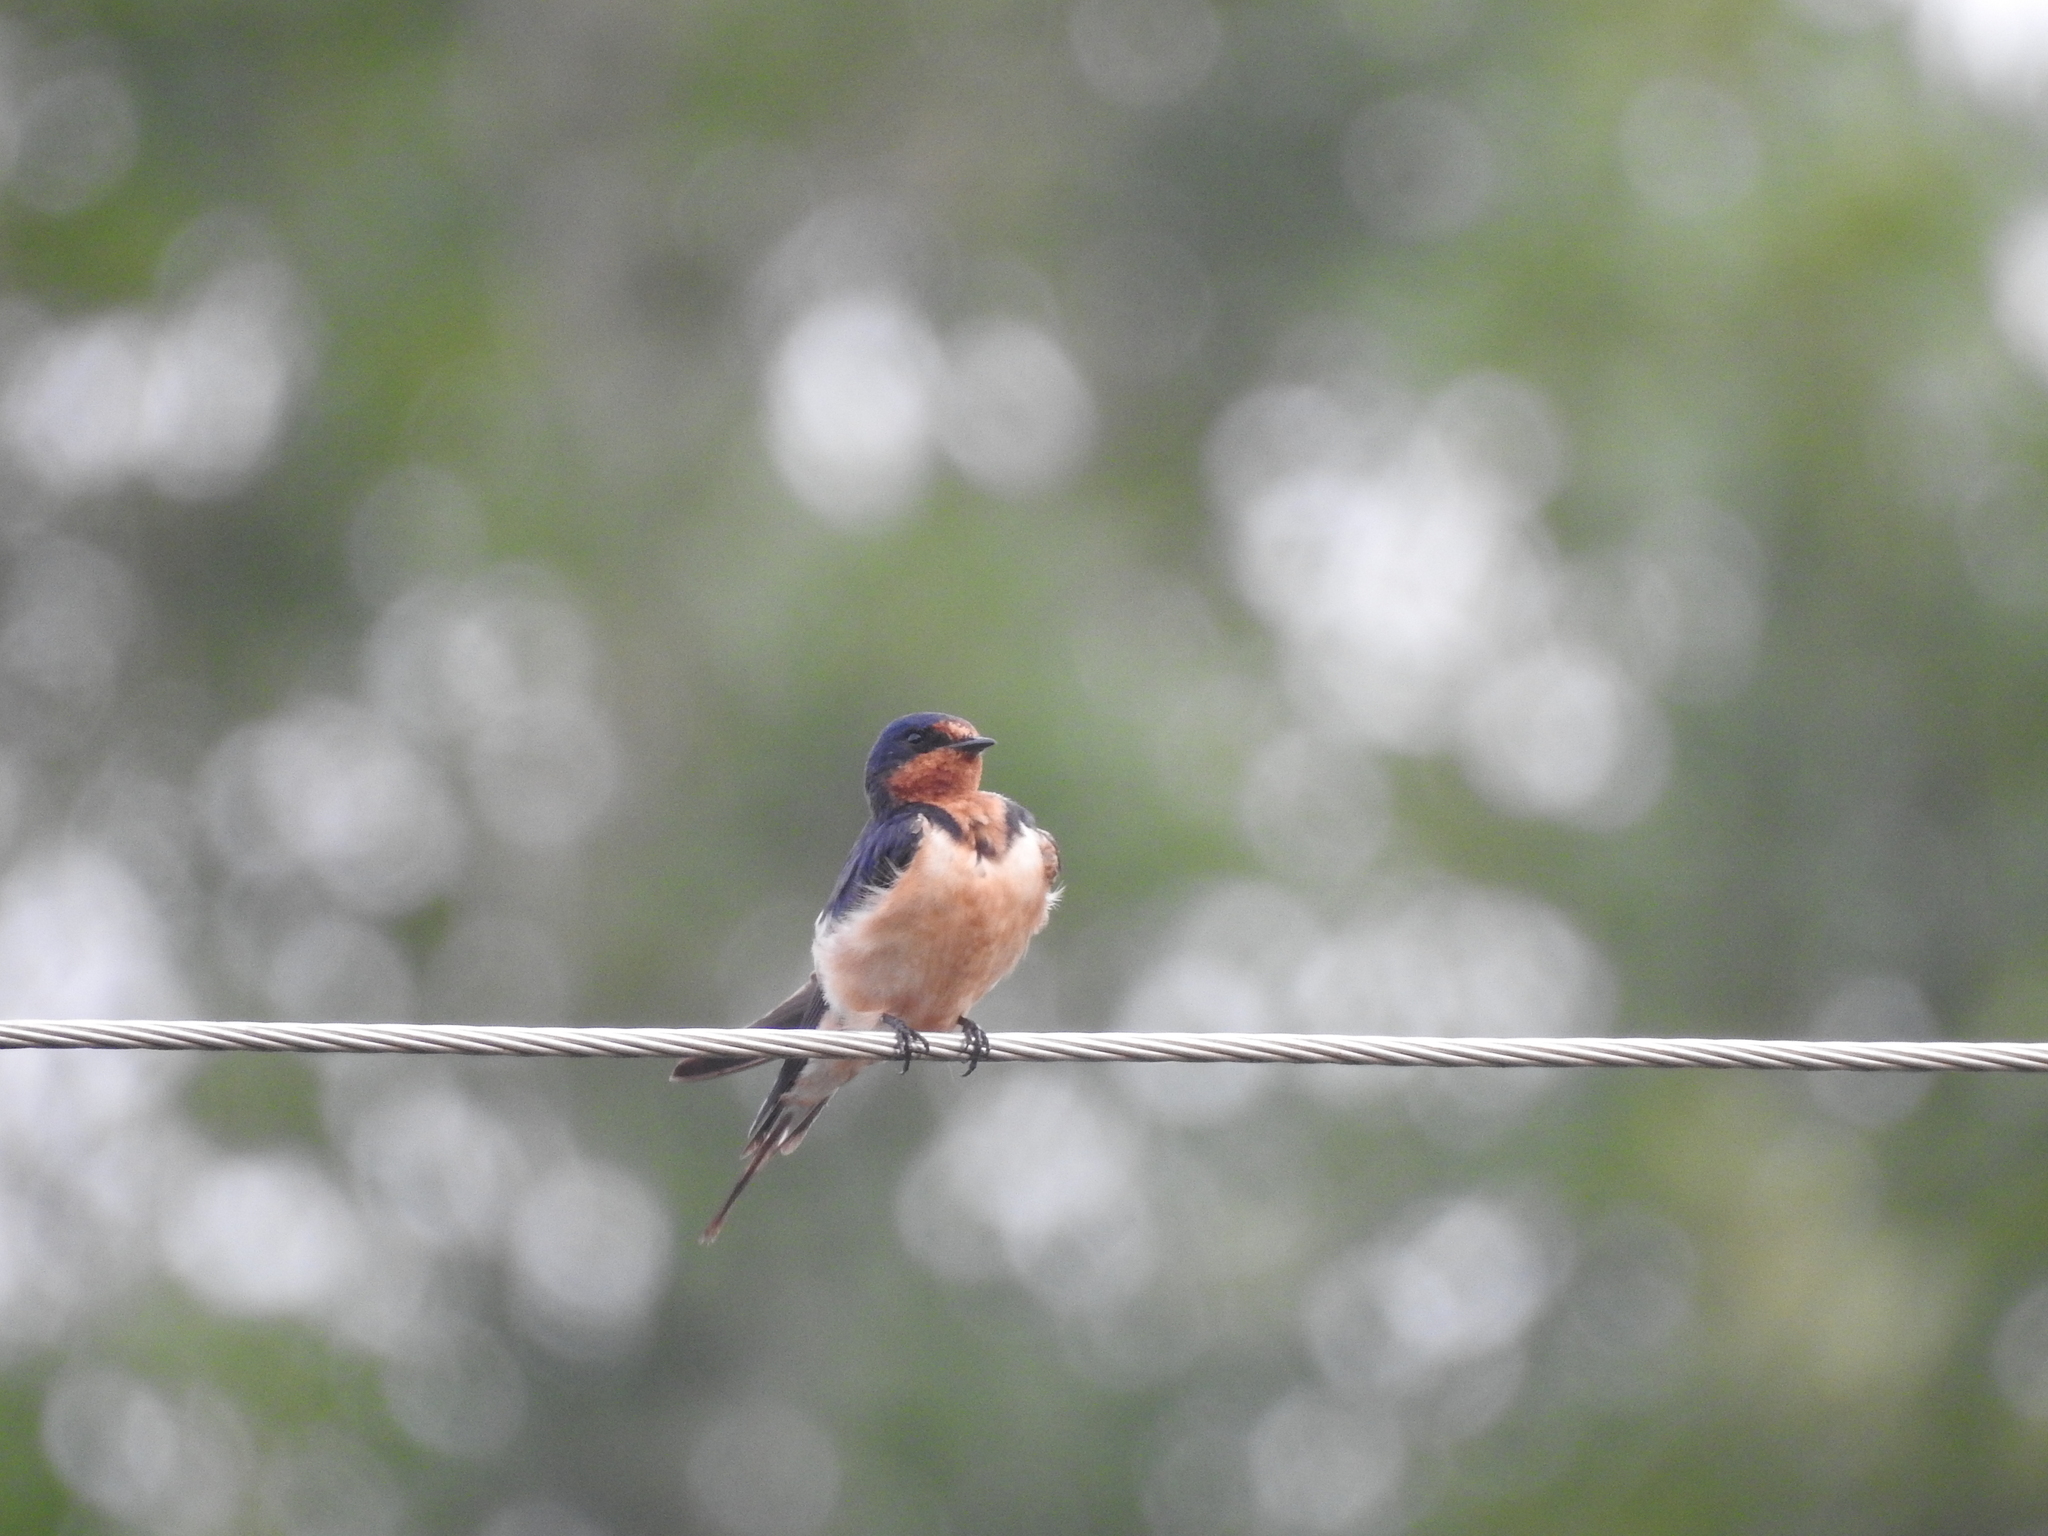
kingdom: Animalia
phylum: Chordata
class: Aves
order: Passeriformes
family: Hirundinidae
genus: Hirundo
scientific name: Hirundo rustica
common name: Barn swallow
